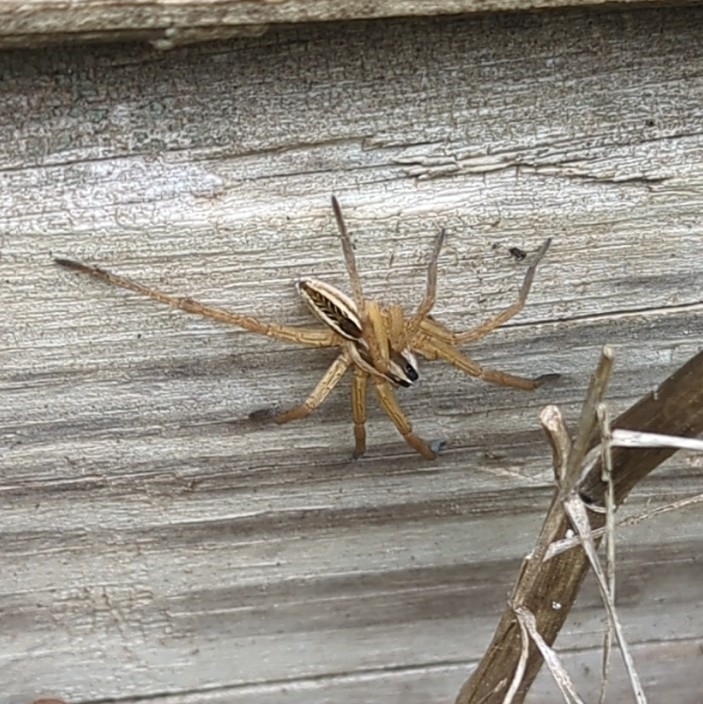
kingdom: Animalia
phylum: Arthropoda
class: Arachnida
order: Araneae
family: Lycosidae
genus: Rabidosa
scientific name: Rabidosa rabida
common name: Rabid wolf spider
